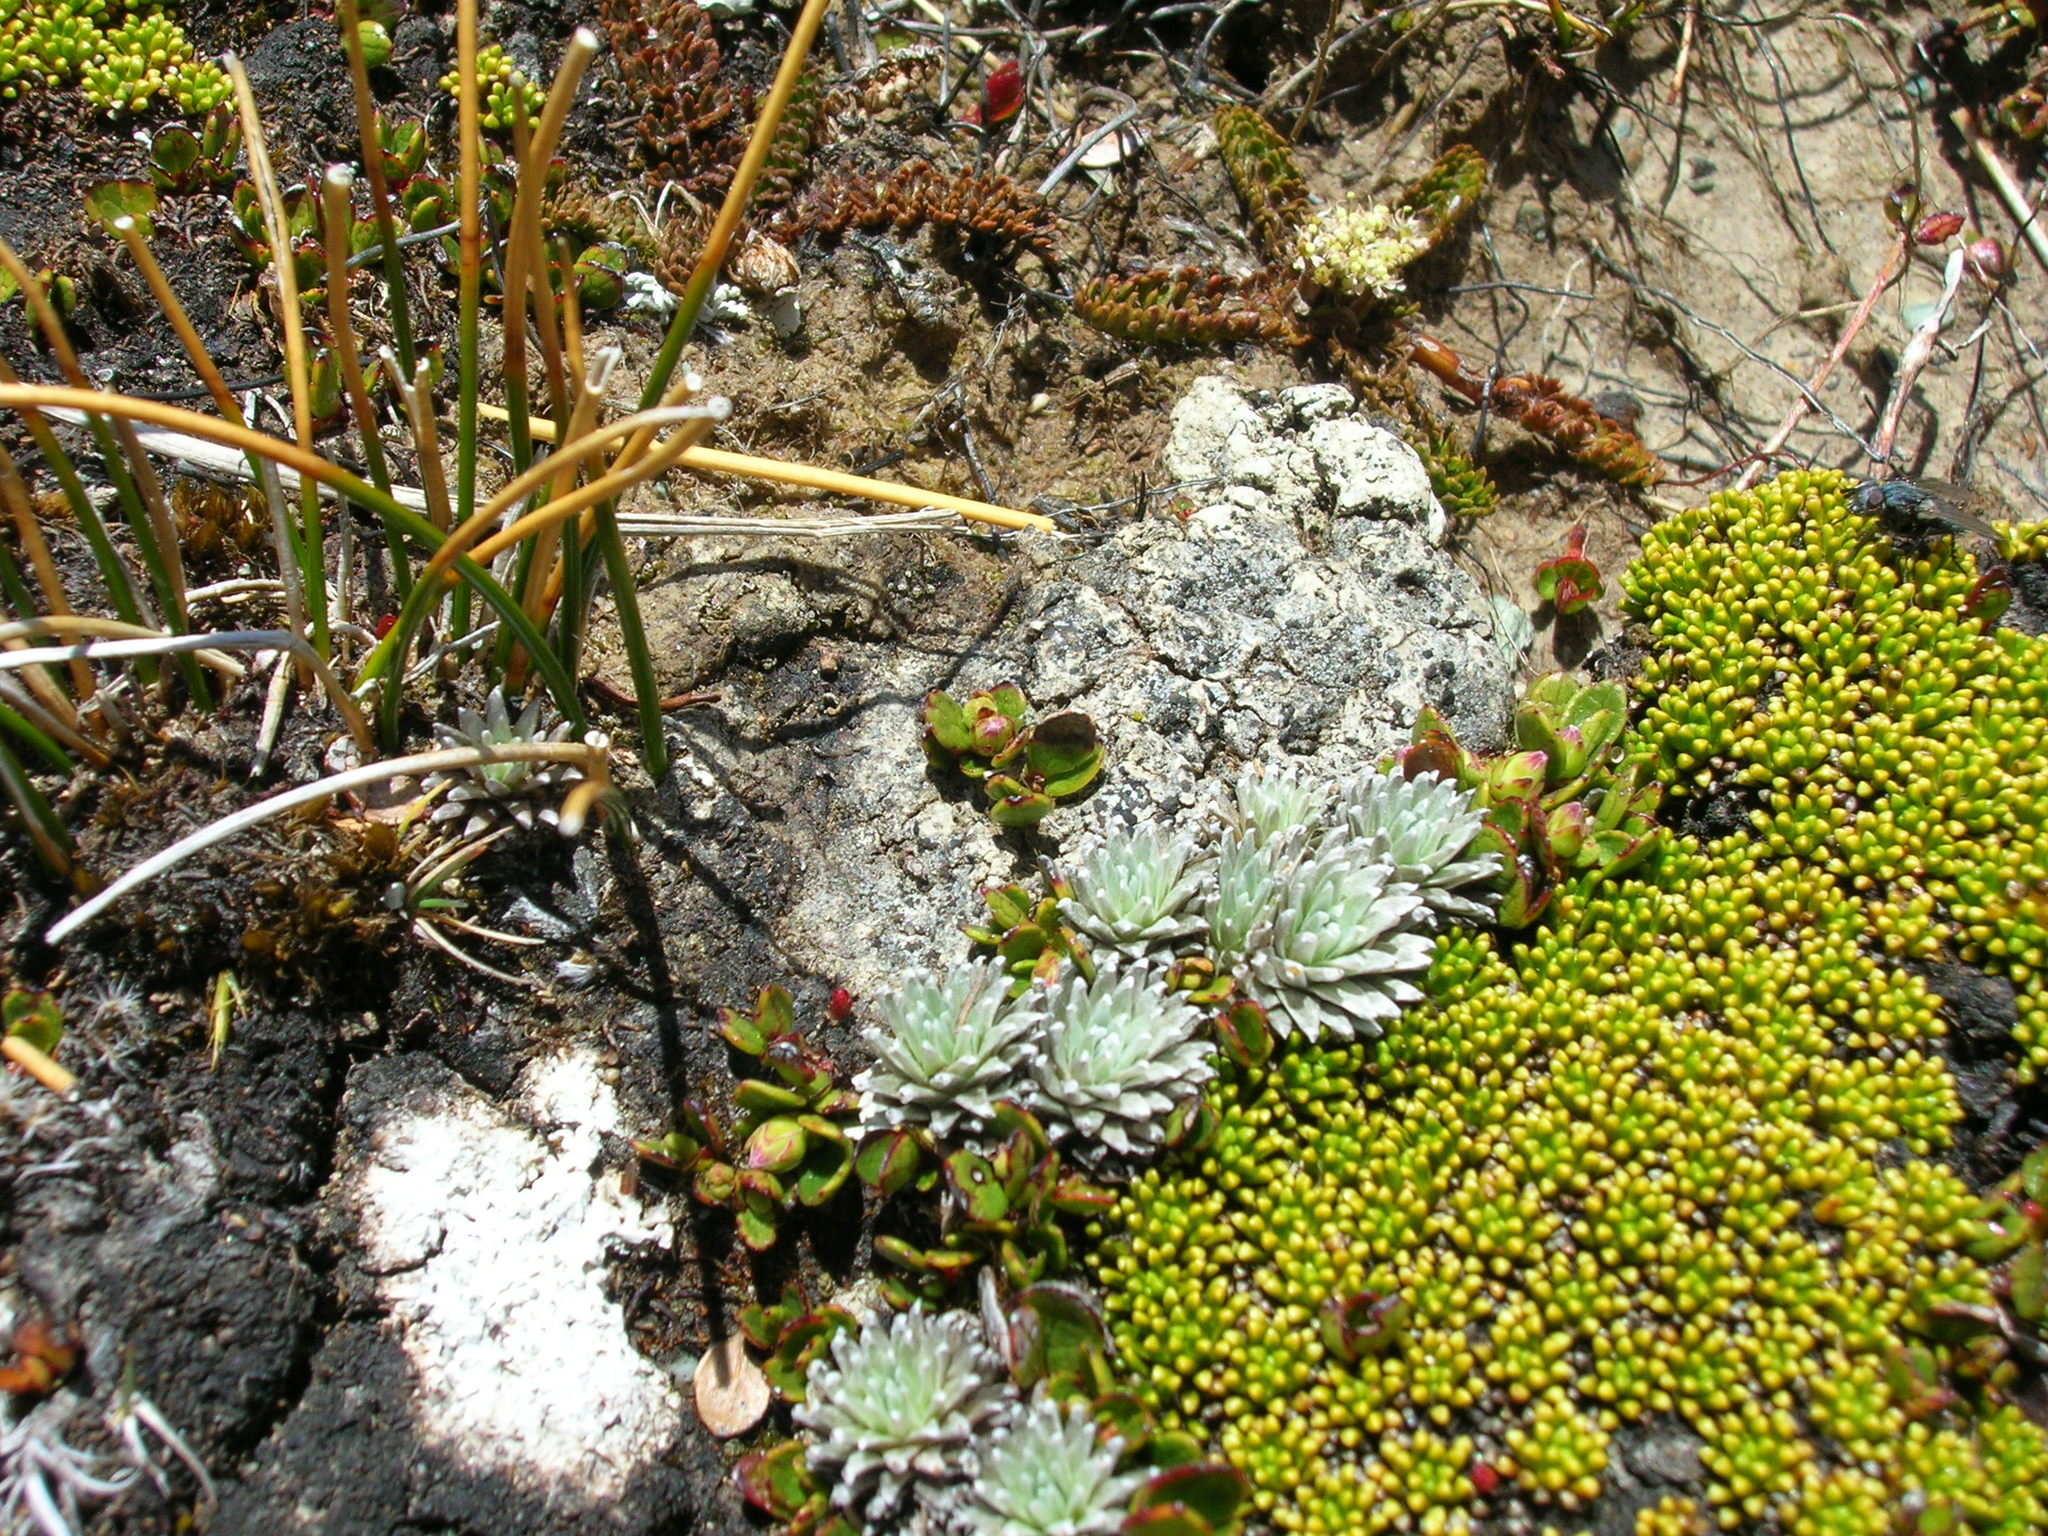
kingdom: Plantae
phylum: Tracheophyta
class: Magnoliopsida
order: Asterales
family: Asteraceae
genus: Raoulia
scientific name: Raoulia grandiflora
